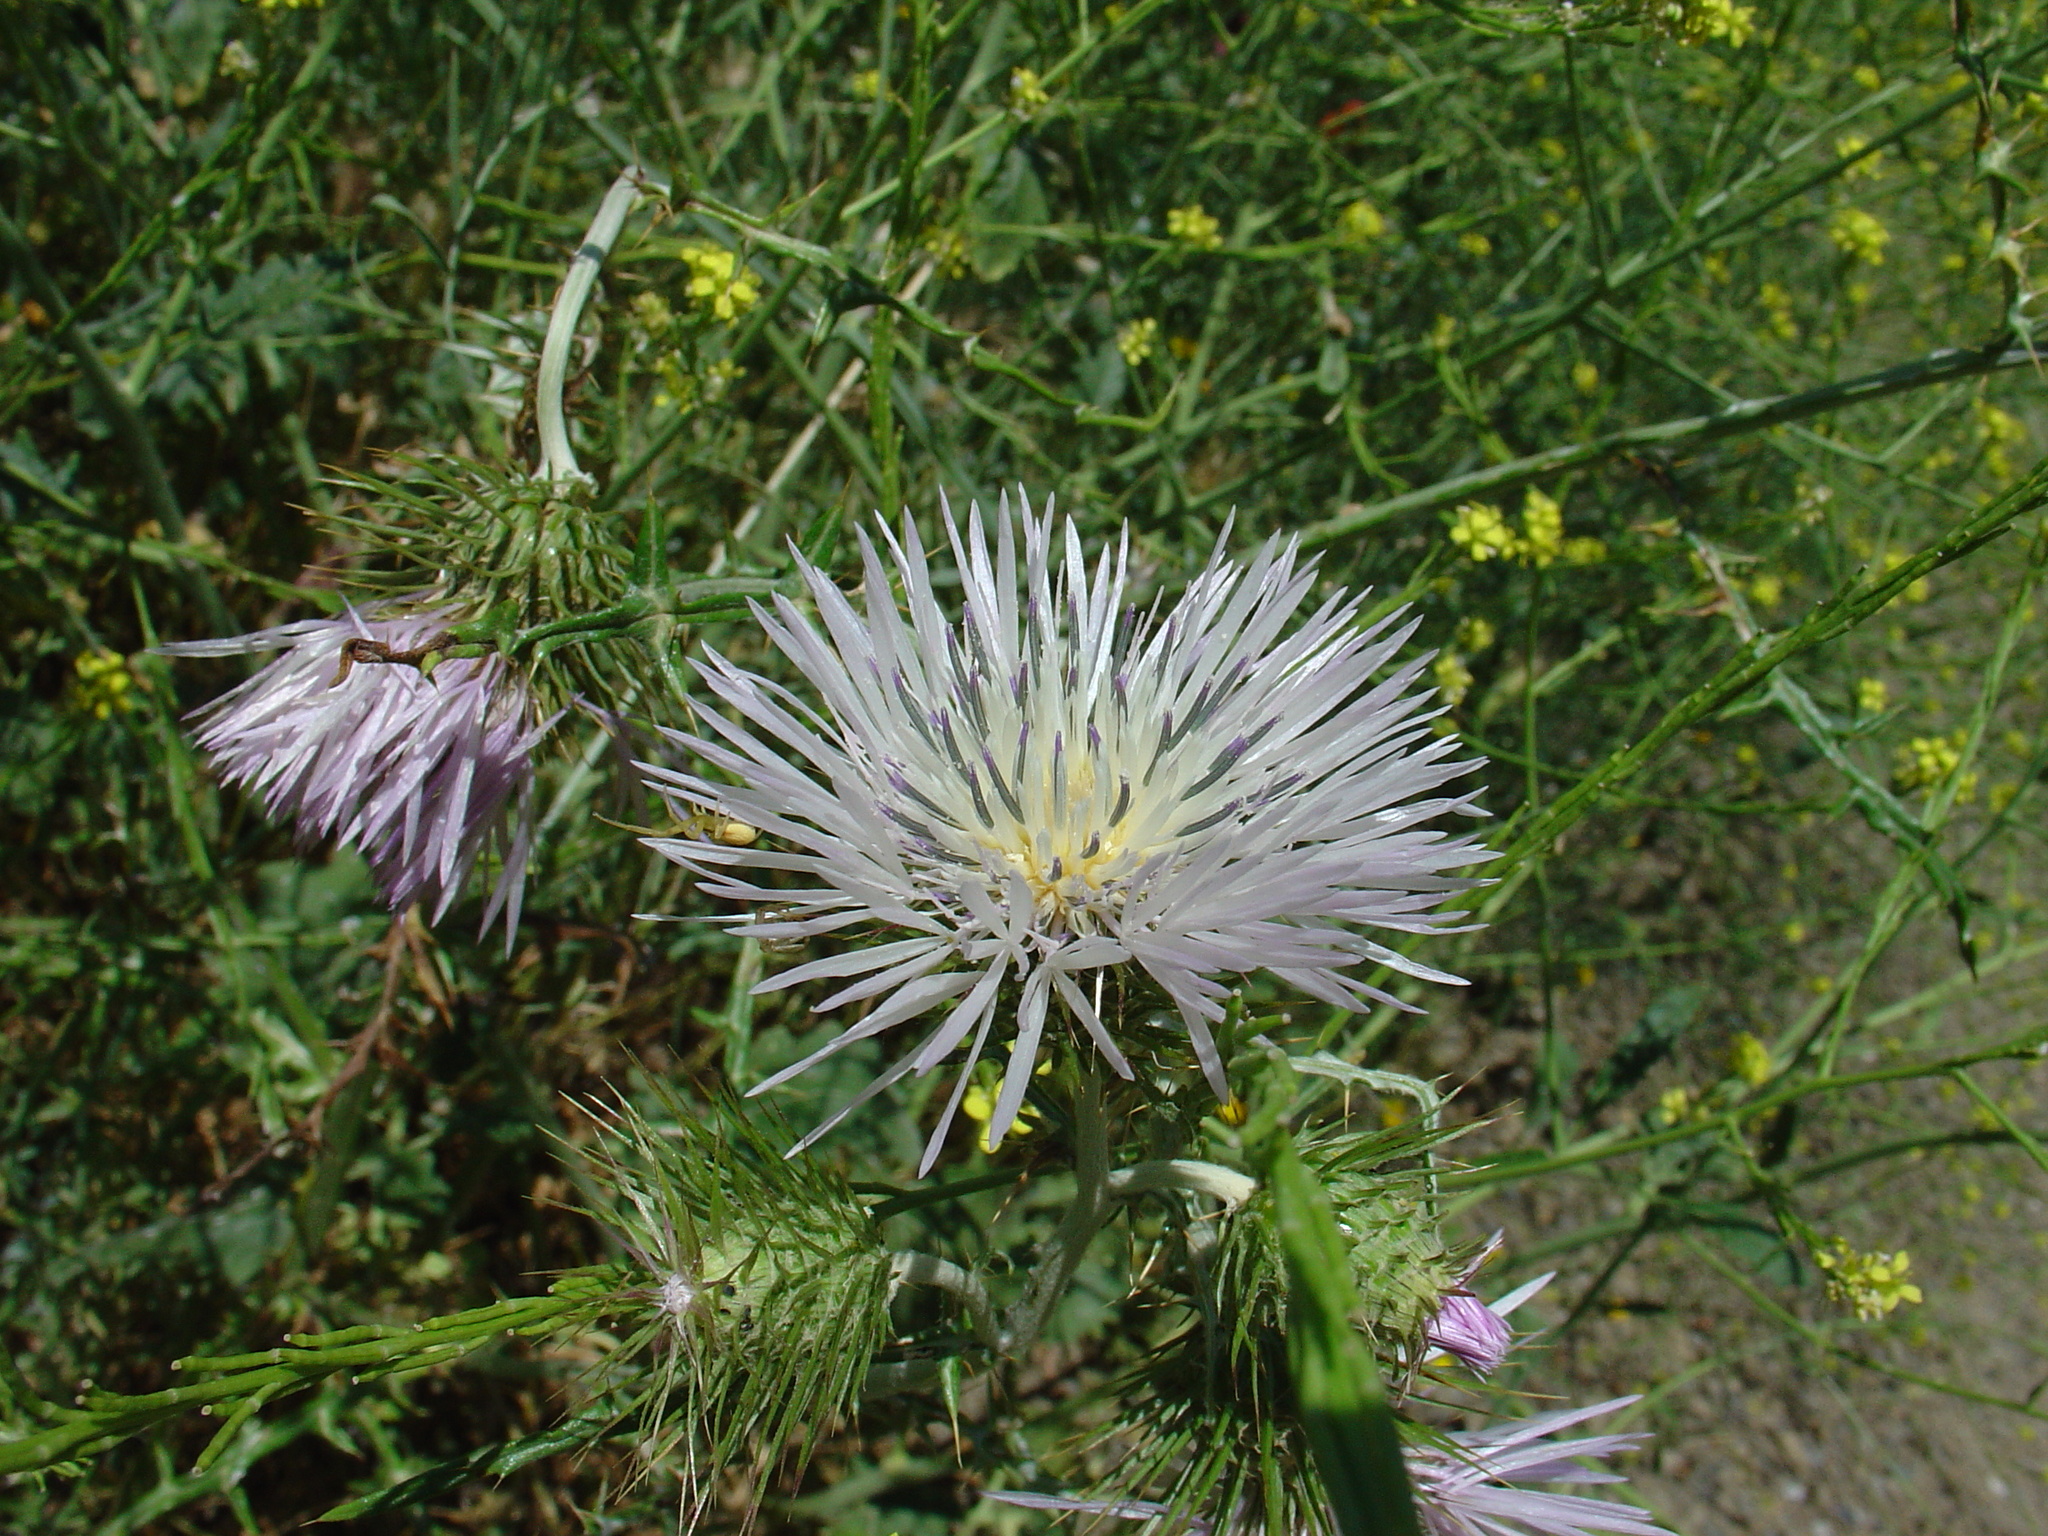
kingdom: Plantae
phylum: Tracheophyta
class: Magnoliopsida
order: Asterales
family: Asteraceae
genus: Galactites
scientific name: Galactites tomentosa
